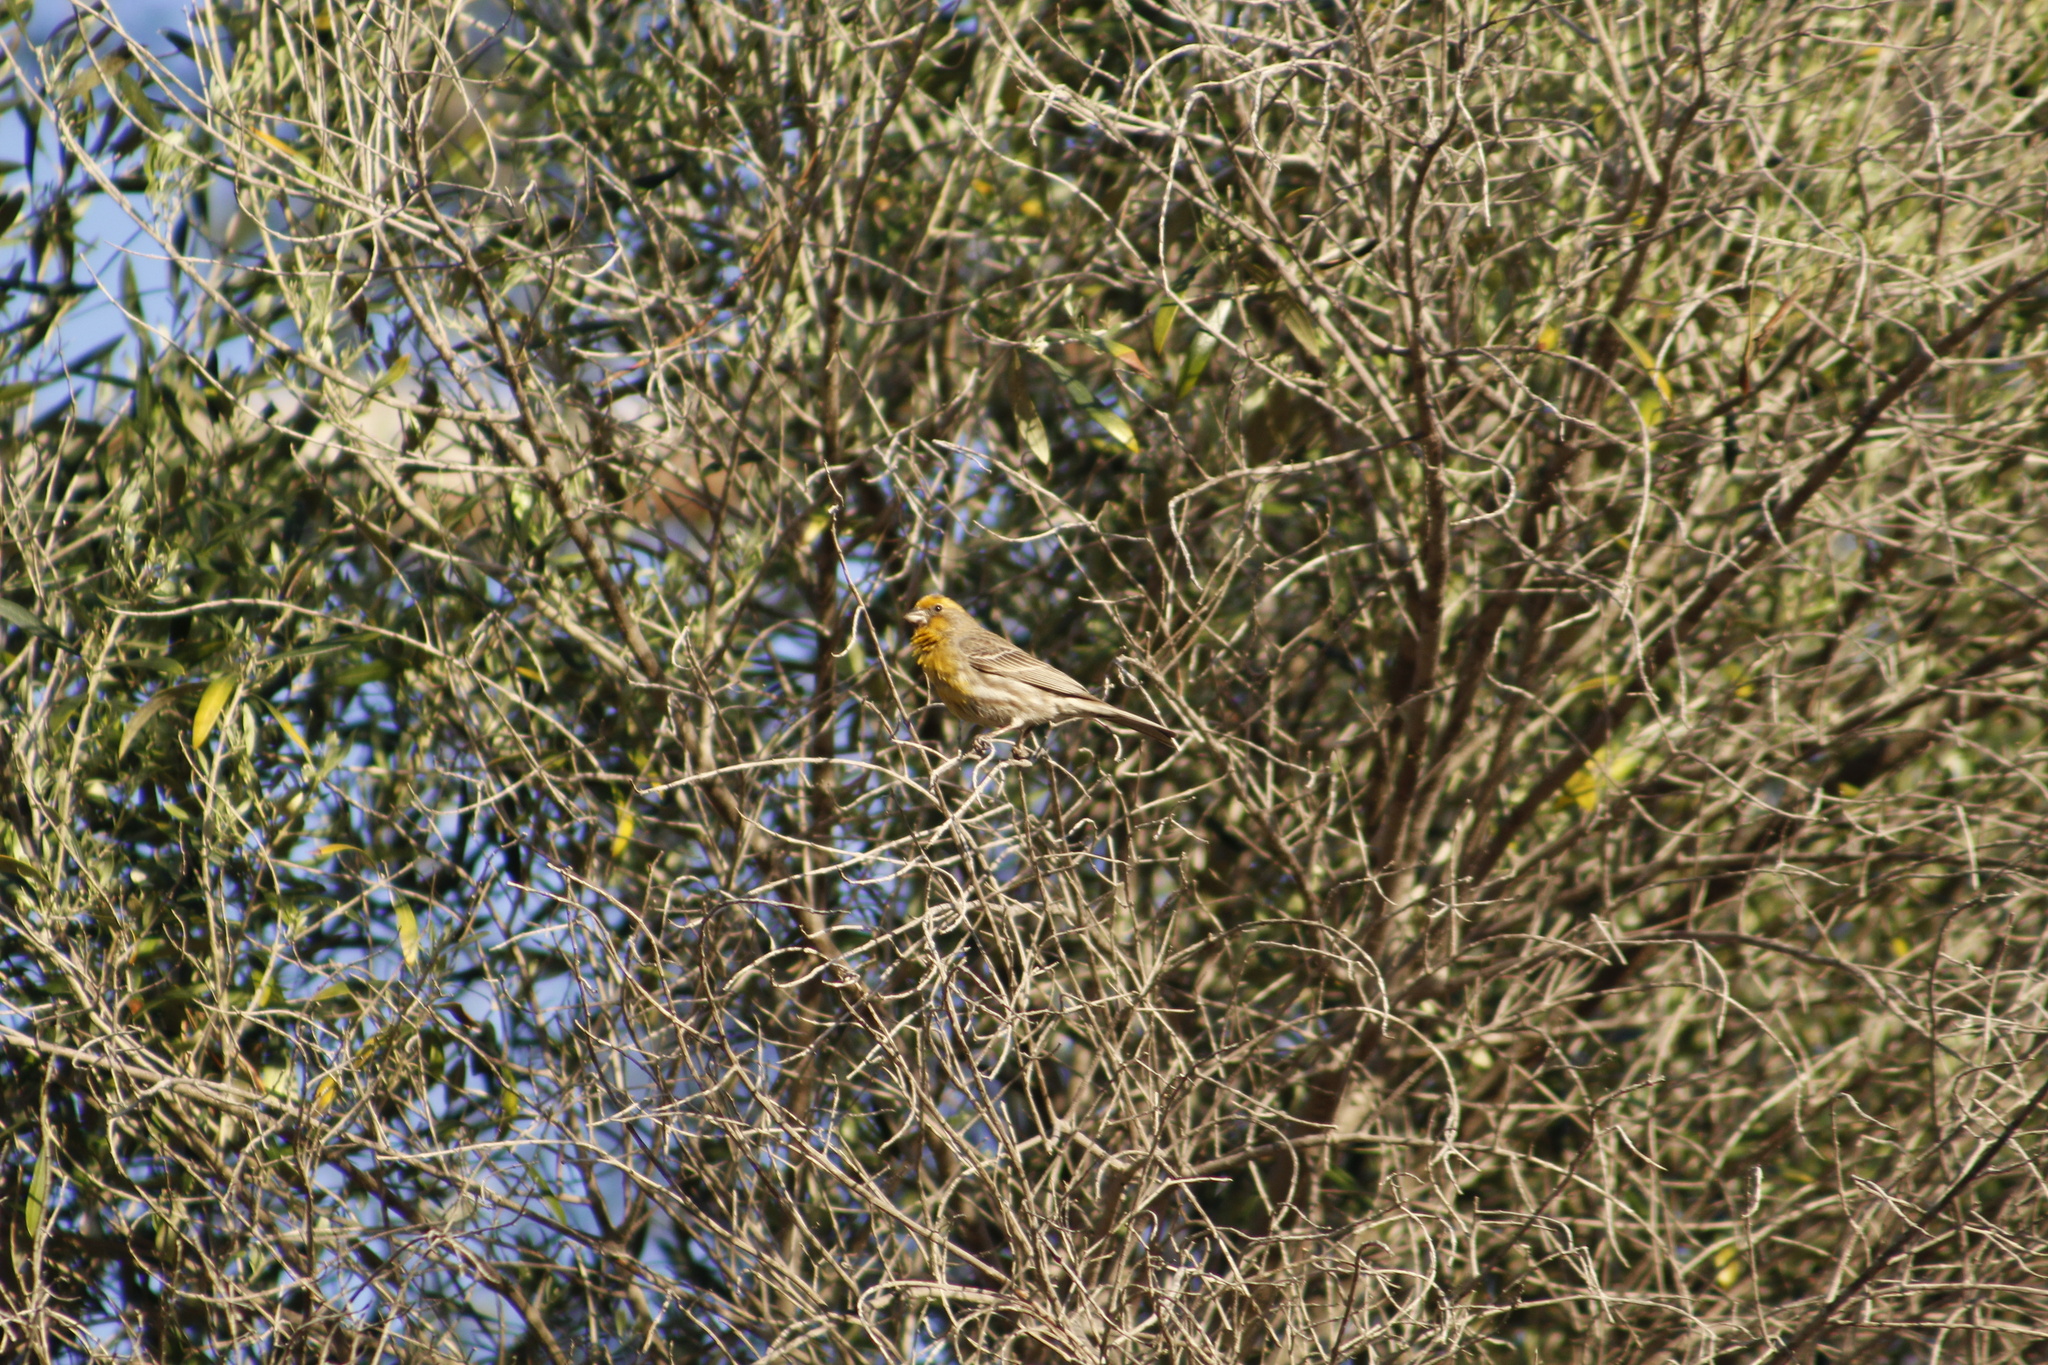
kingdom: Animalia
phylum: Chordata
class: Aves
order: Passeriformes
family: Fringillidae
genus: Haemorhous
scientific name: Haemorhous mexicanus
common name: House finch
